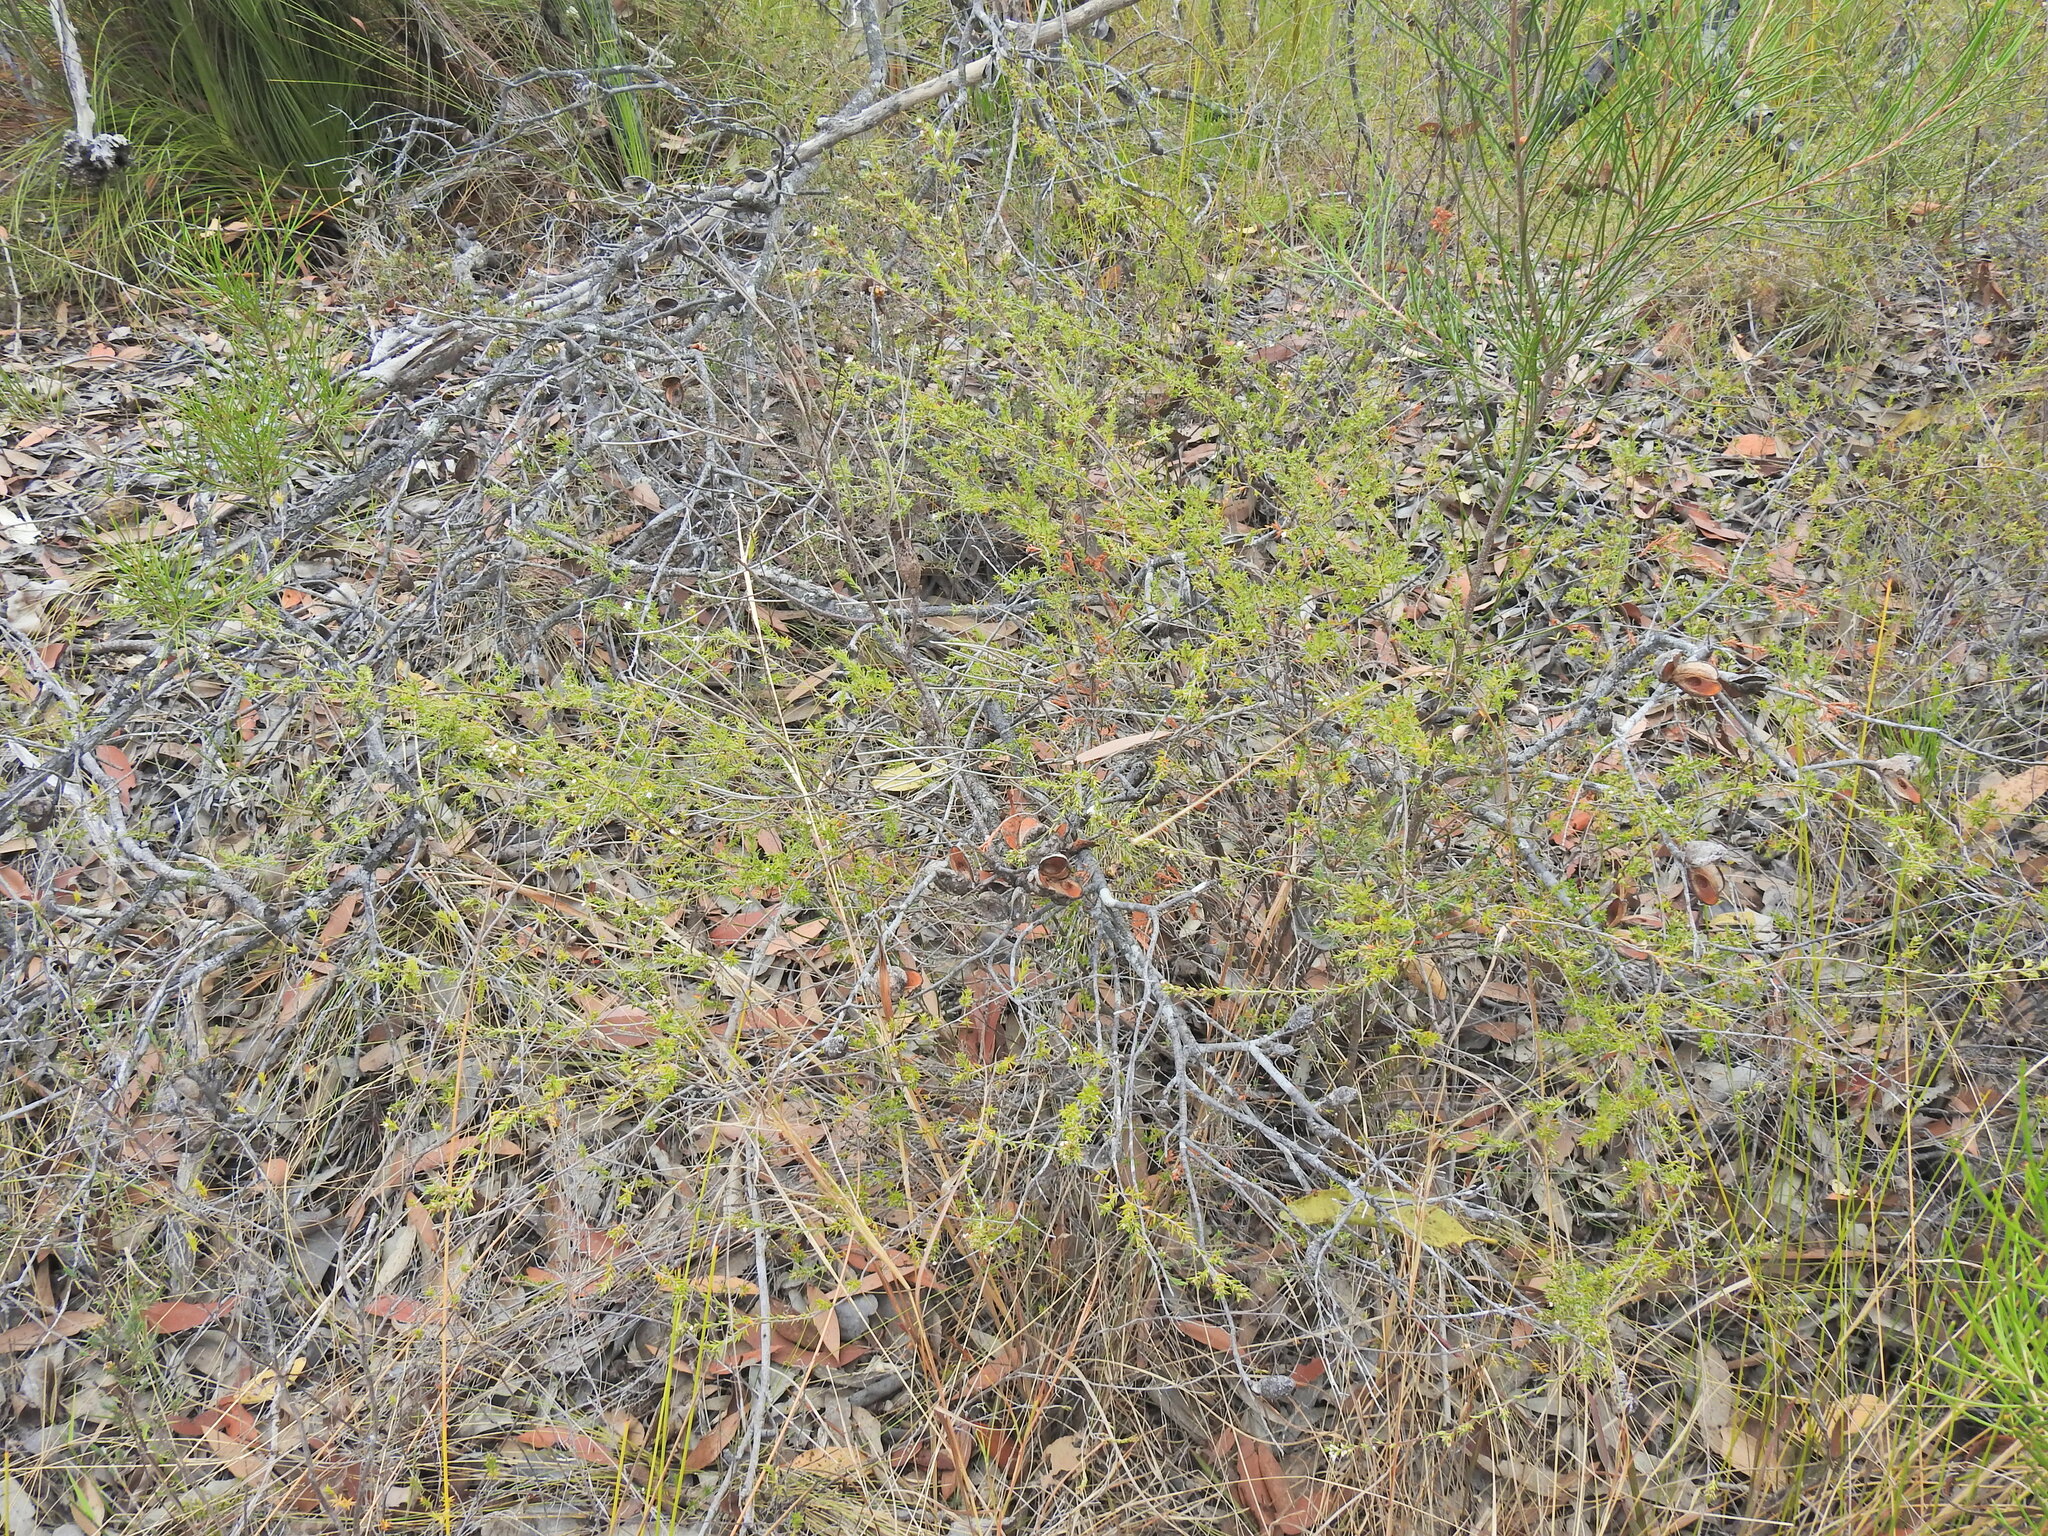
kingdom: Plantae
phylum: Tracheophyta
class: Magnoliopsida
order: Ericales
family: Ericaceae
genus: Styphelia
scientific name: Styphelia
